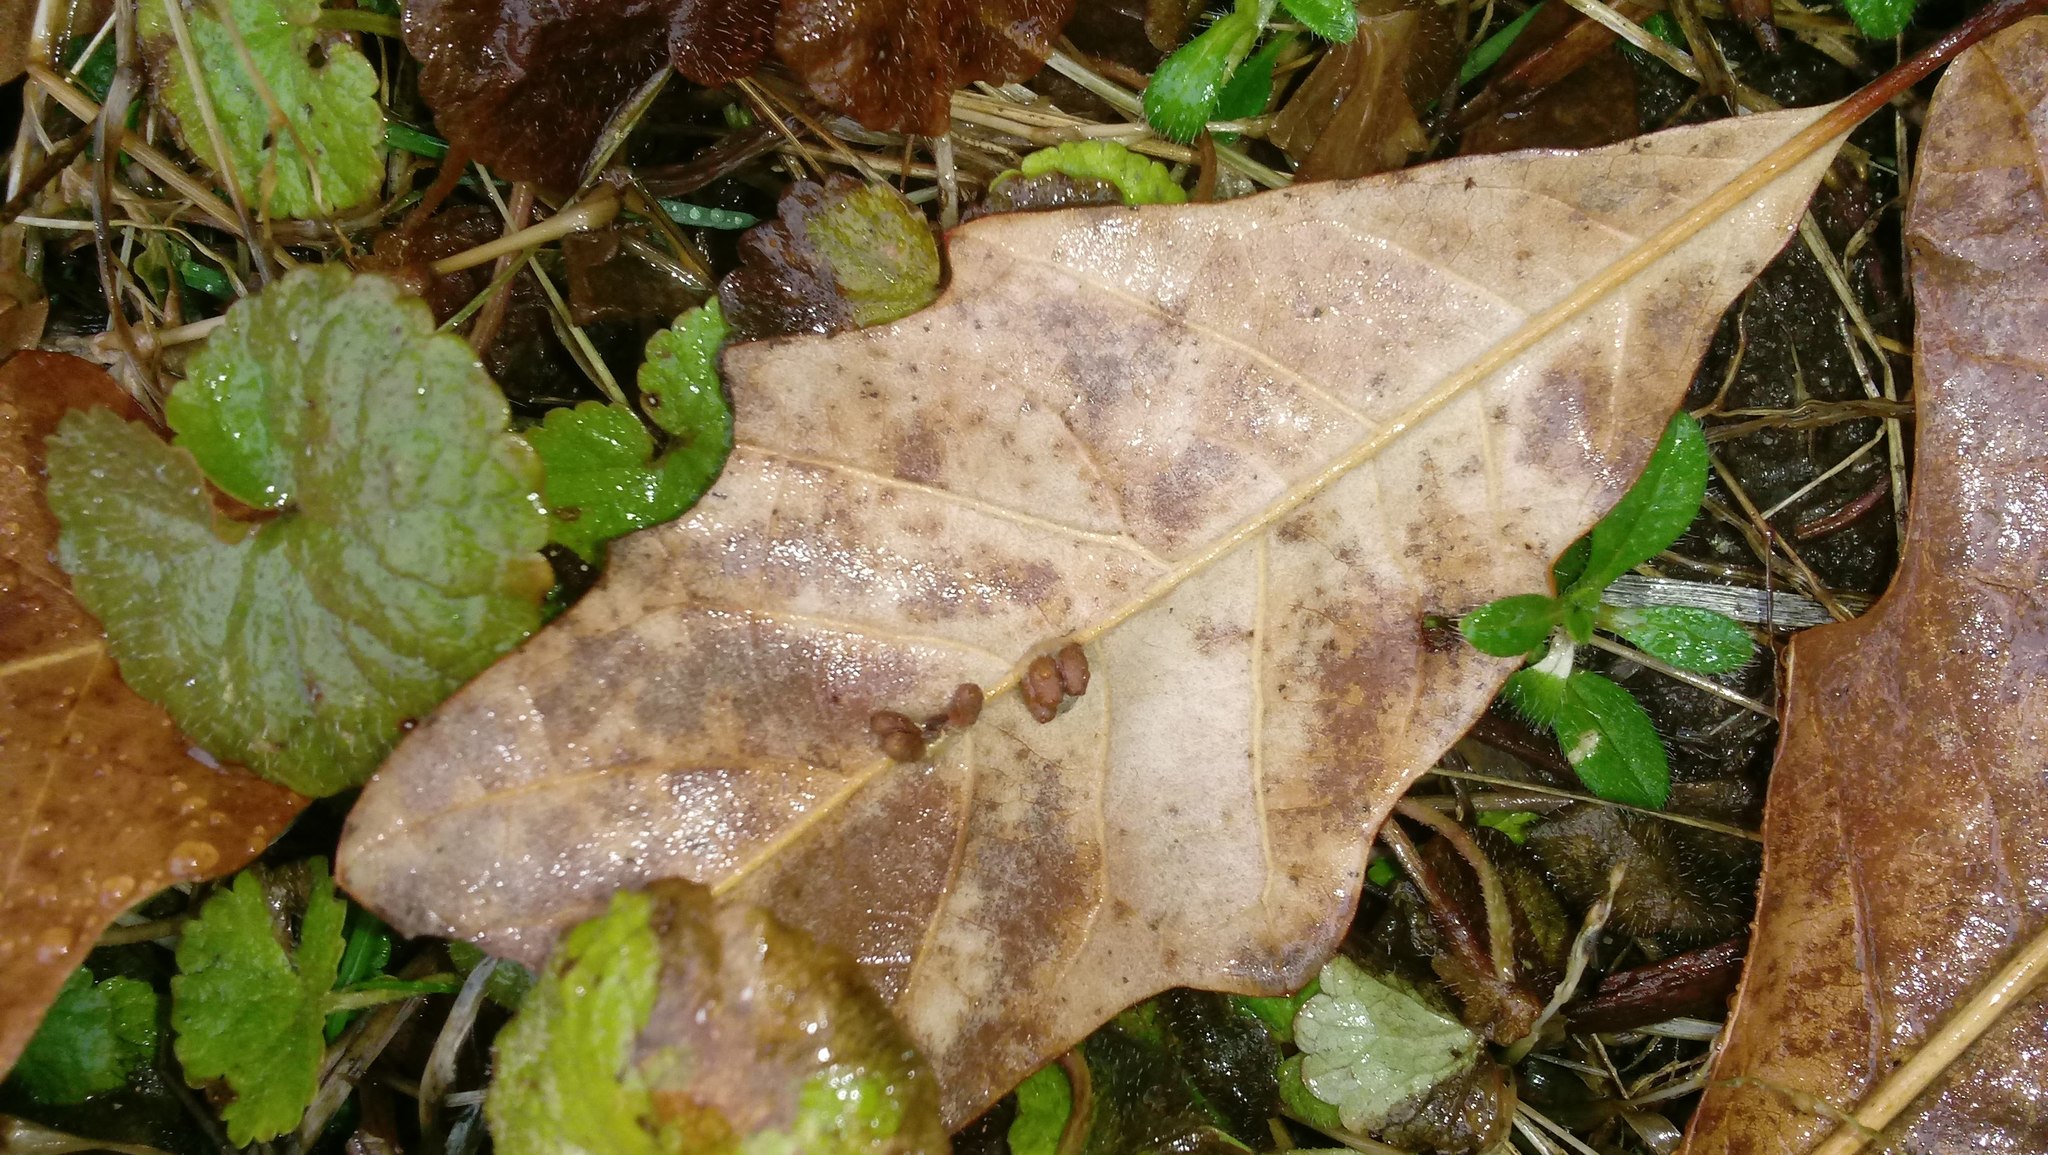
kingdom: Animalia
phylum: Arthropoda
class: Insecta
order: Hymenoptera
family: Cynipidae
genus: Andricus
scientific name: Andricus Druon ignotum
